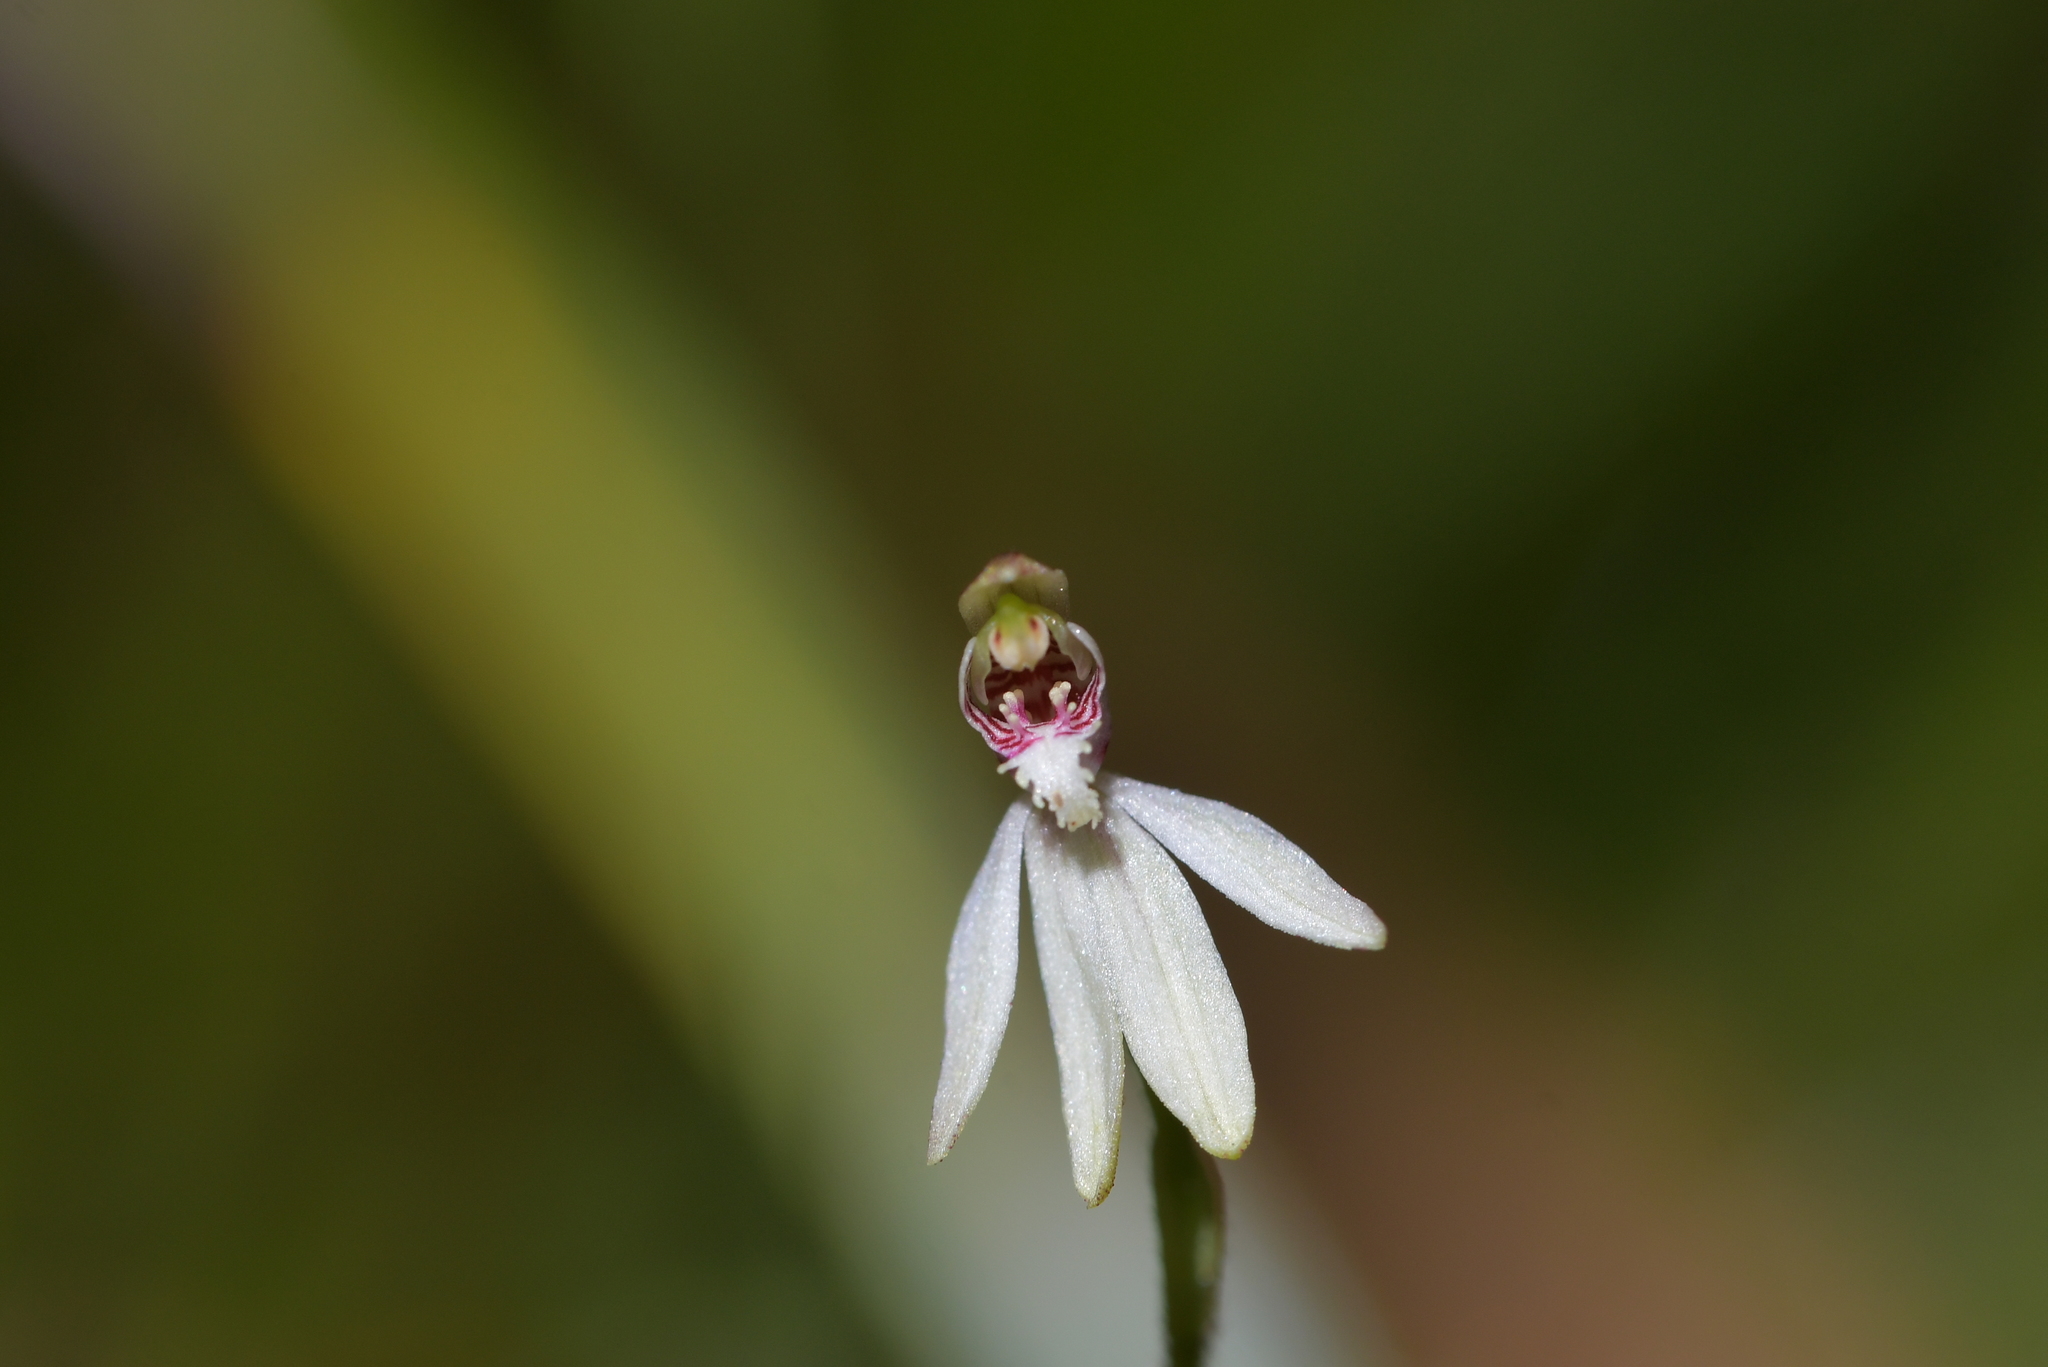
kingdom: Plantae
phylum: Tracheophyta
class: Liliopsida
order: Asparagales
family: Orchidaceae
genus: Caladenia
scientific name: Caladenia chlorostyla
